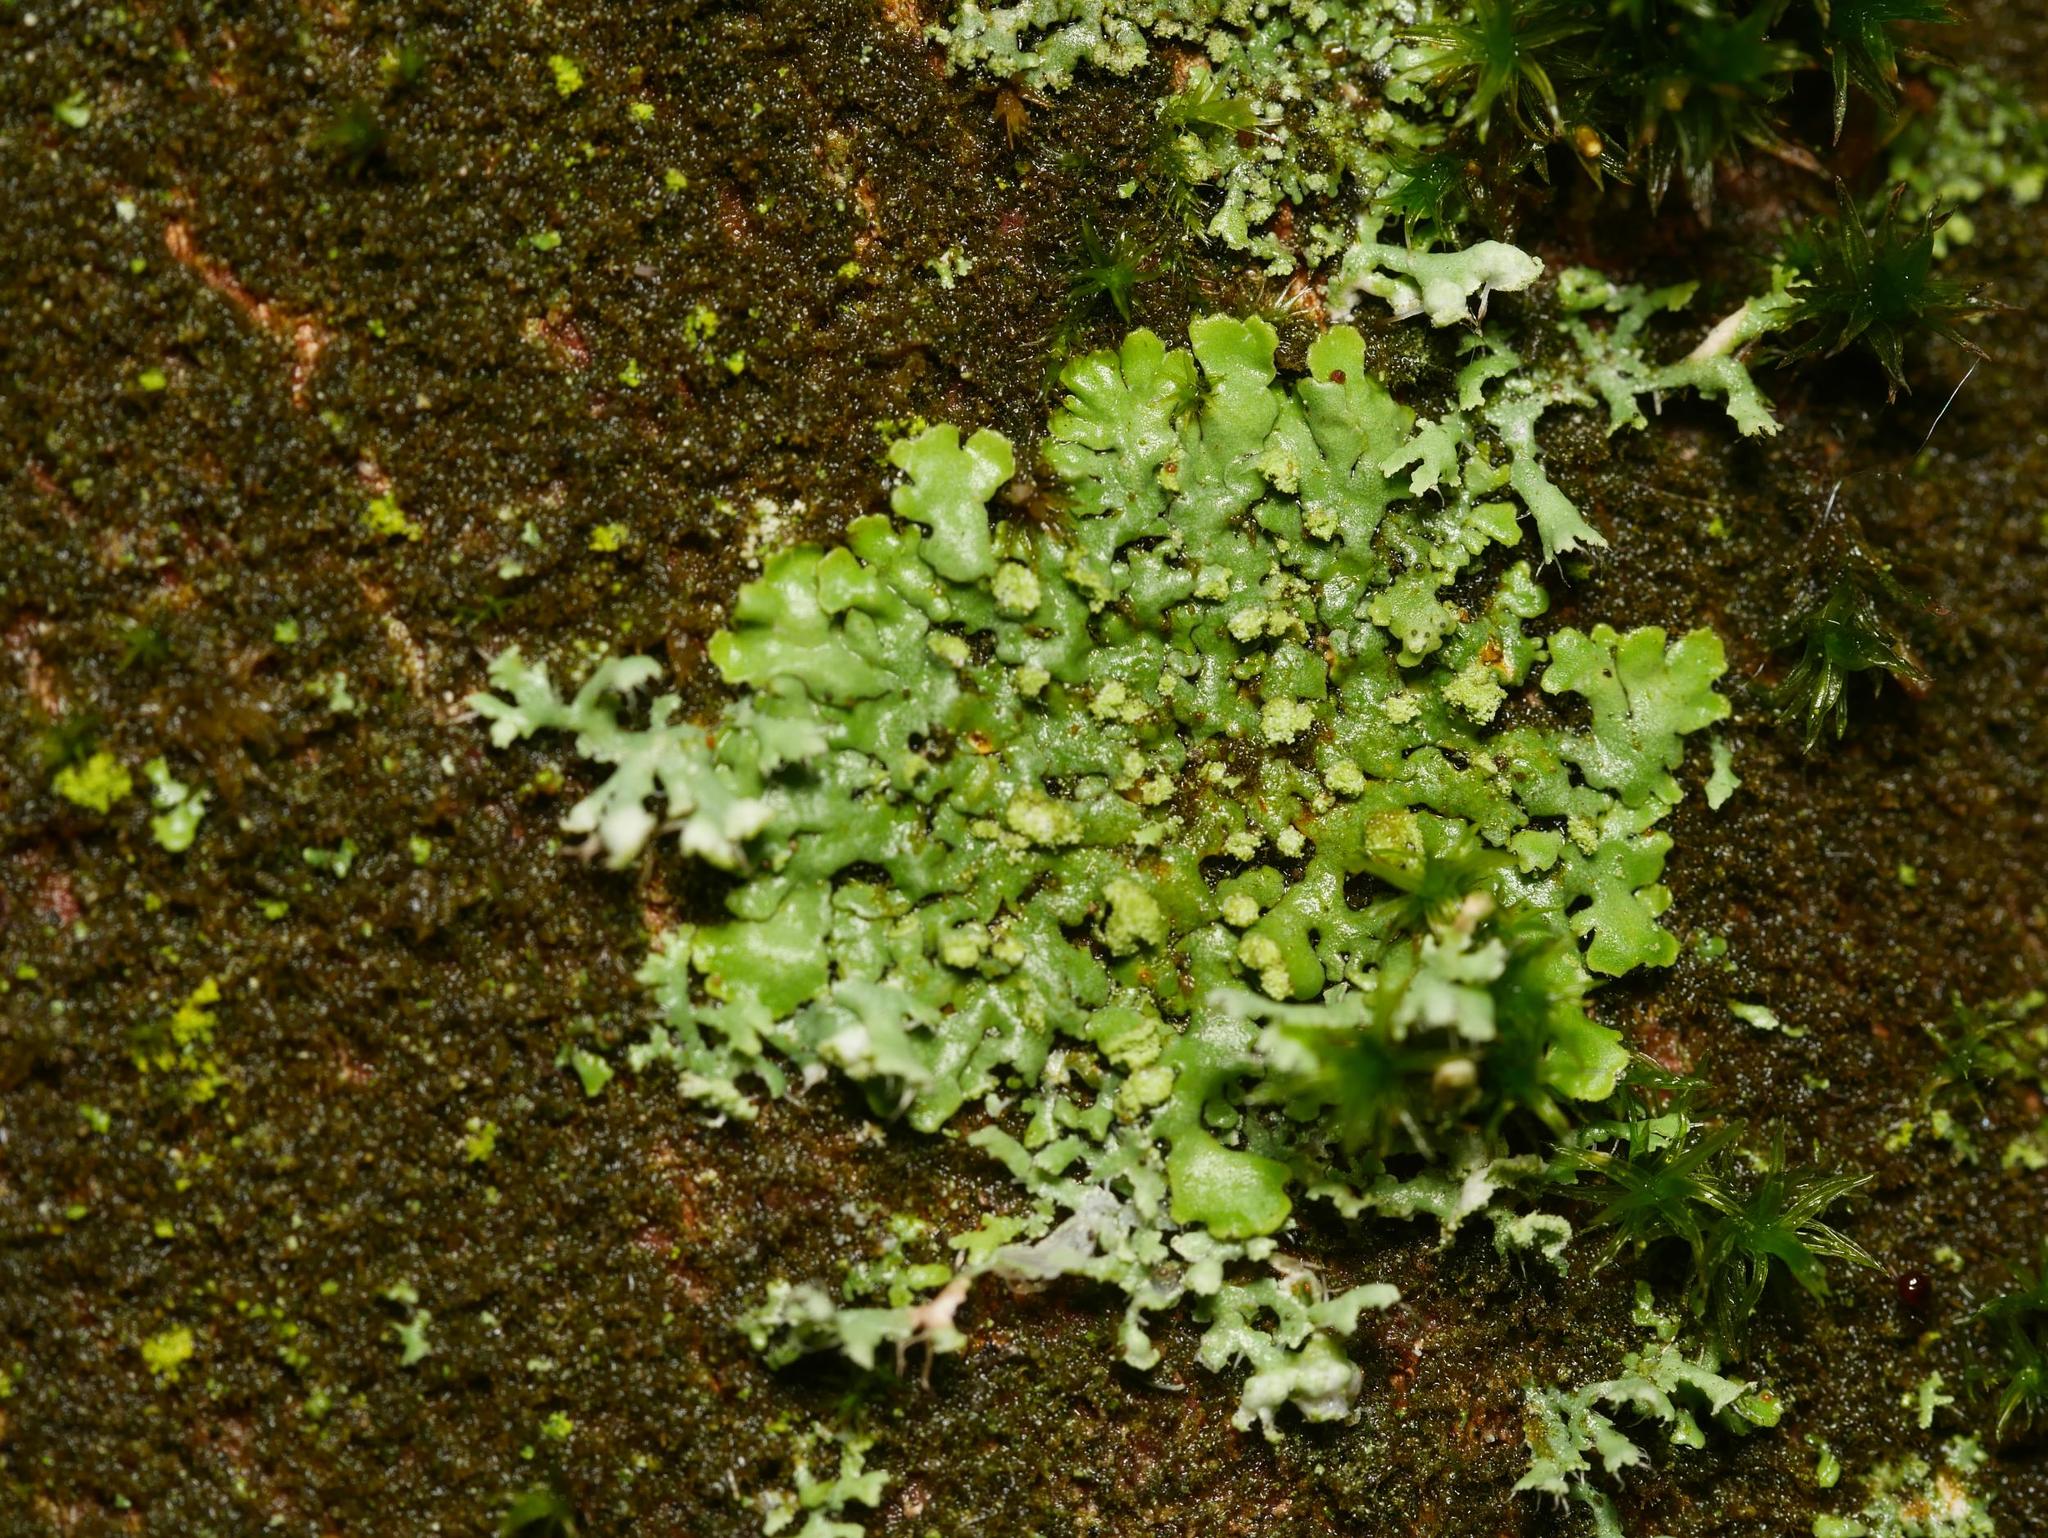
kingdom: Fungi
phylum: Ascomycota
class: Lecanoromycetes
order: Caliciales
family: Physciaceae
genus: Phaeophyscia
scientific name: Phaeophyscia orbicularis
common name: Mealy shadow lichen
